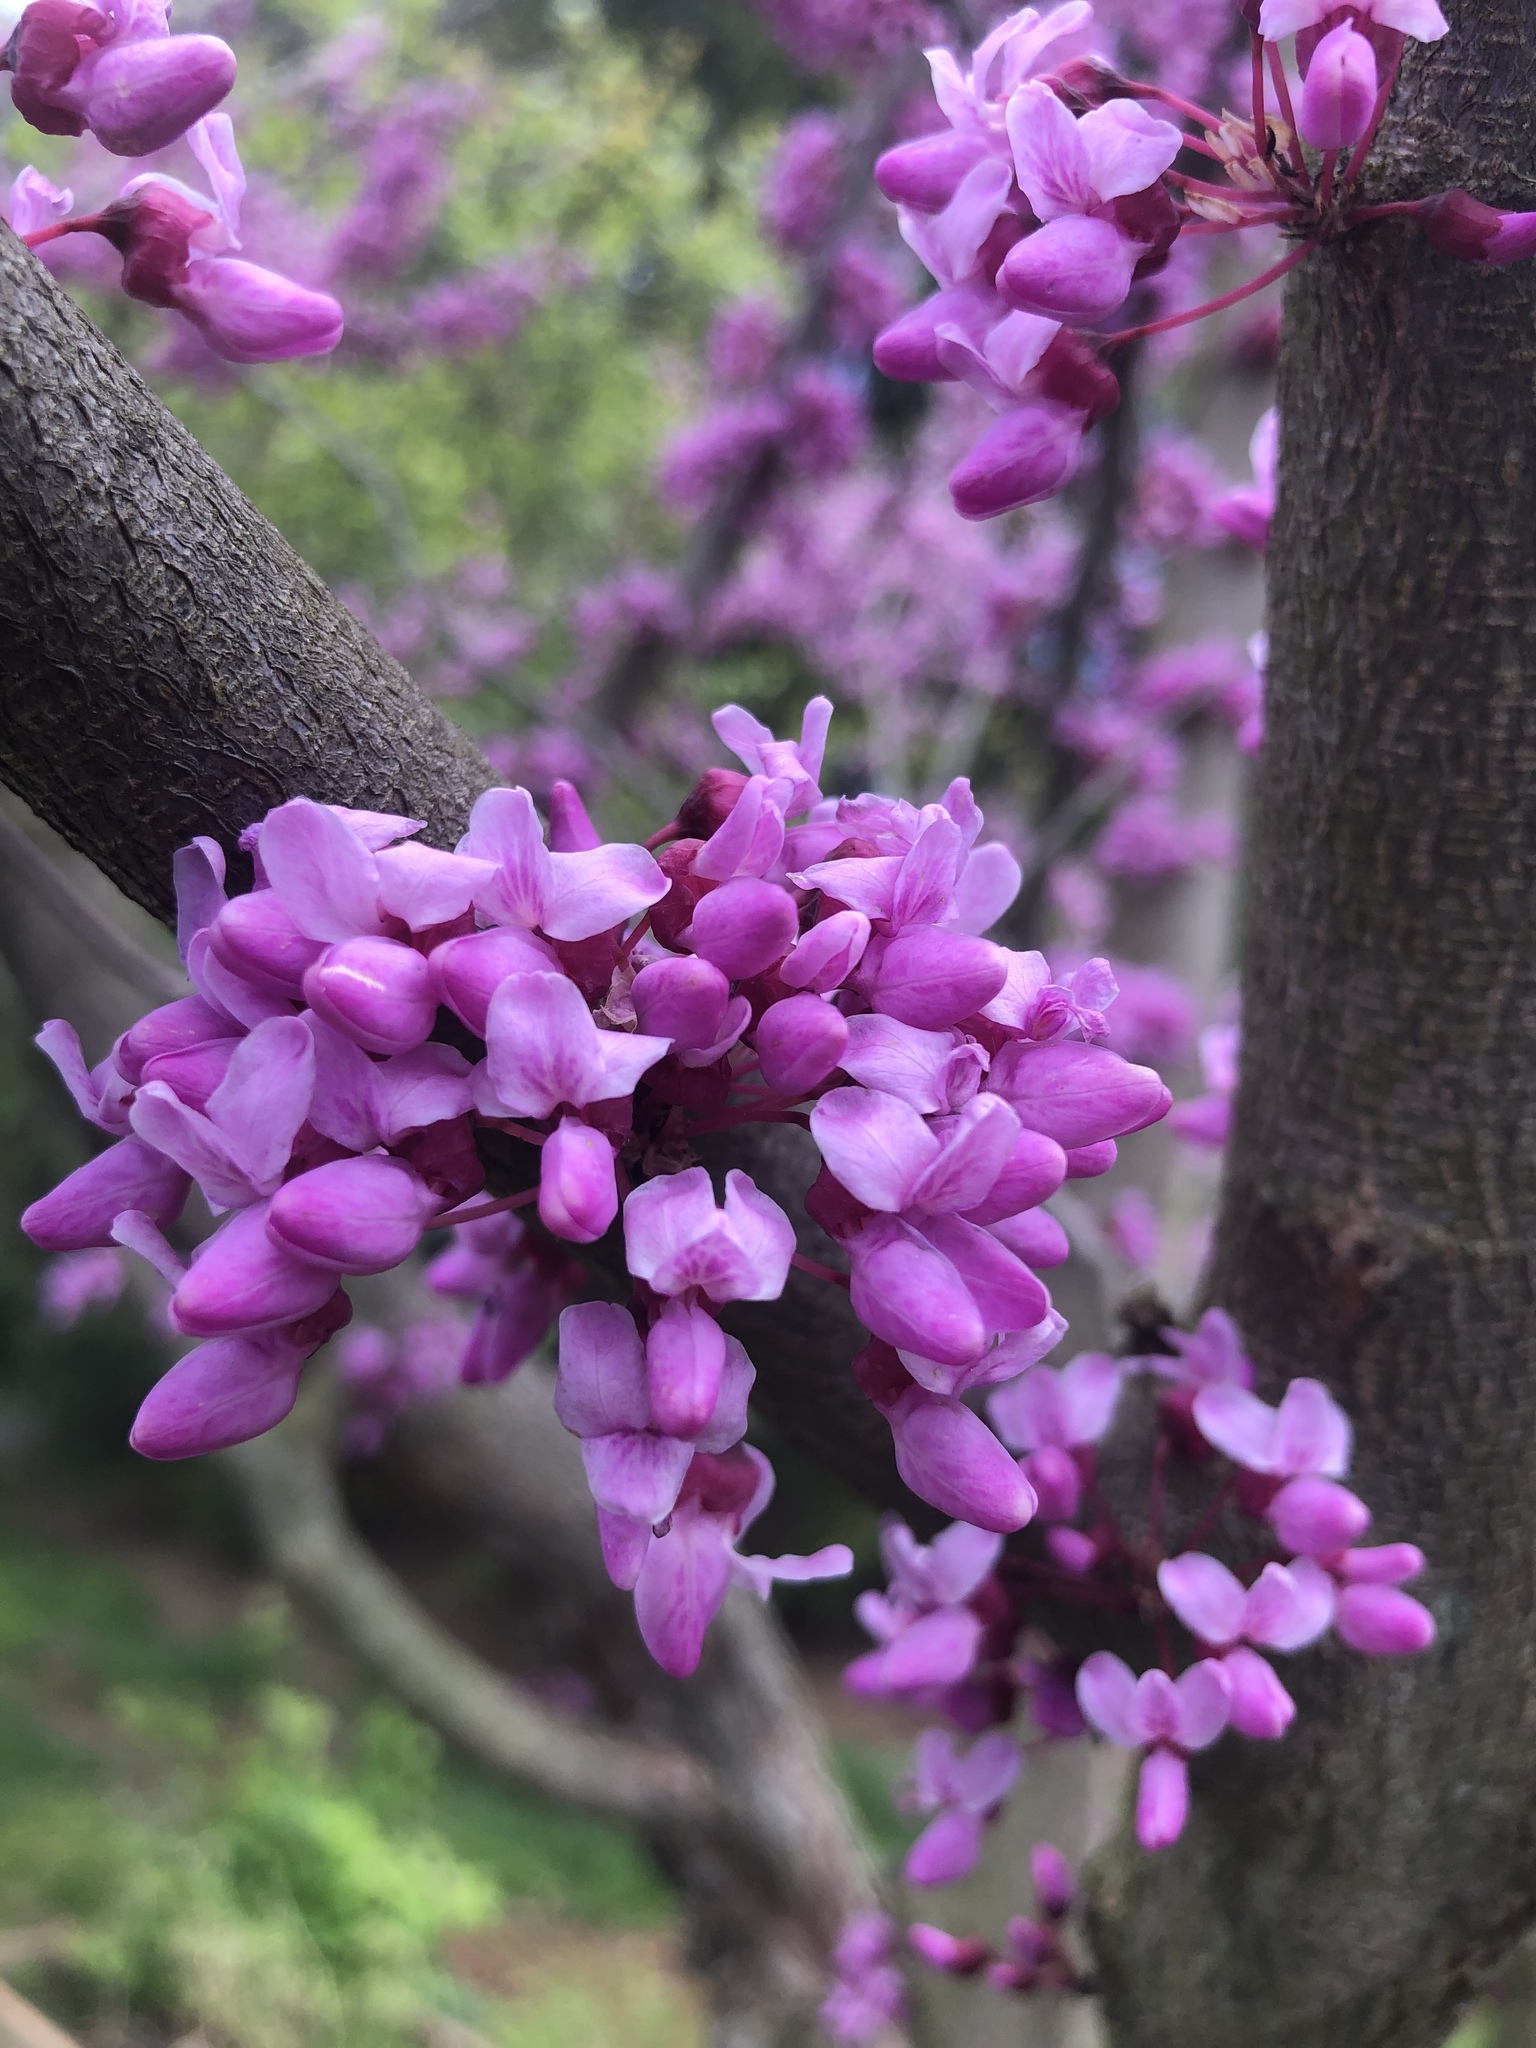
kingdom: Plantae
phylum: Tracheophyta
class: Magnoliopsida
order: Fabales
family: Fabaceae
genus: Cercis
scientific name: Cercis canadensis
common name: Eastern redbud
